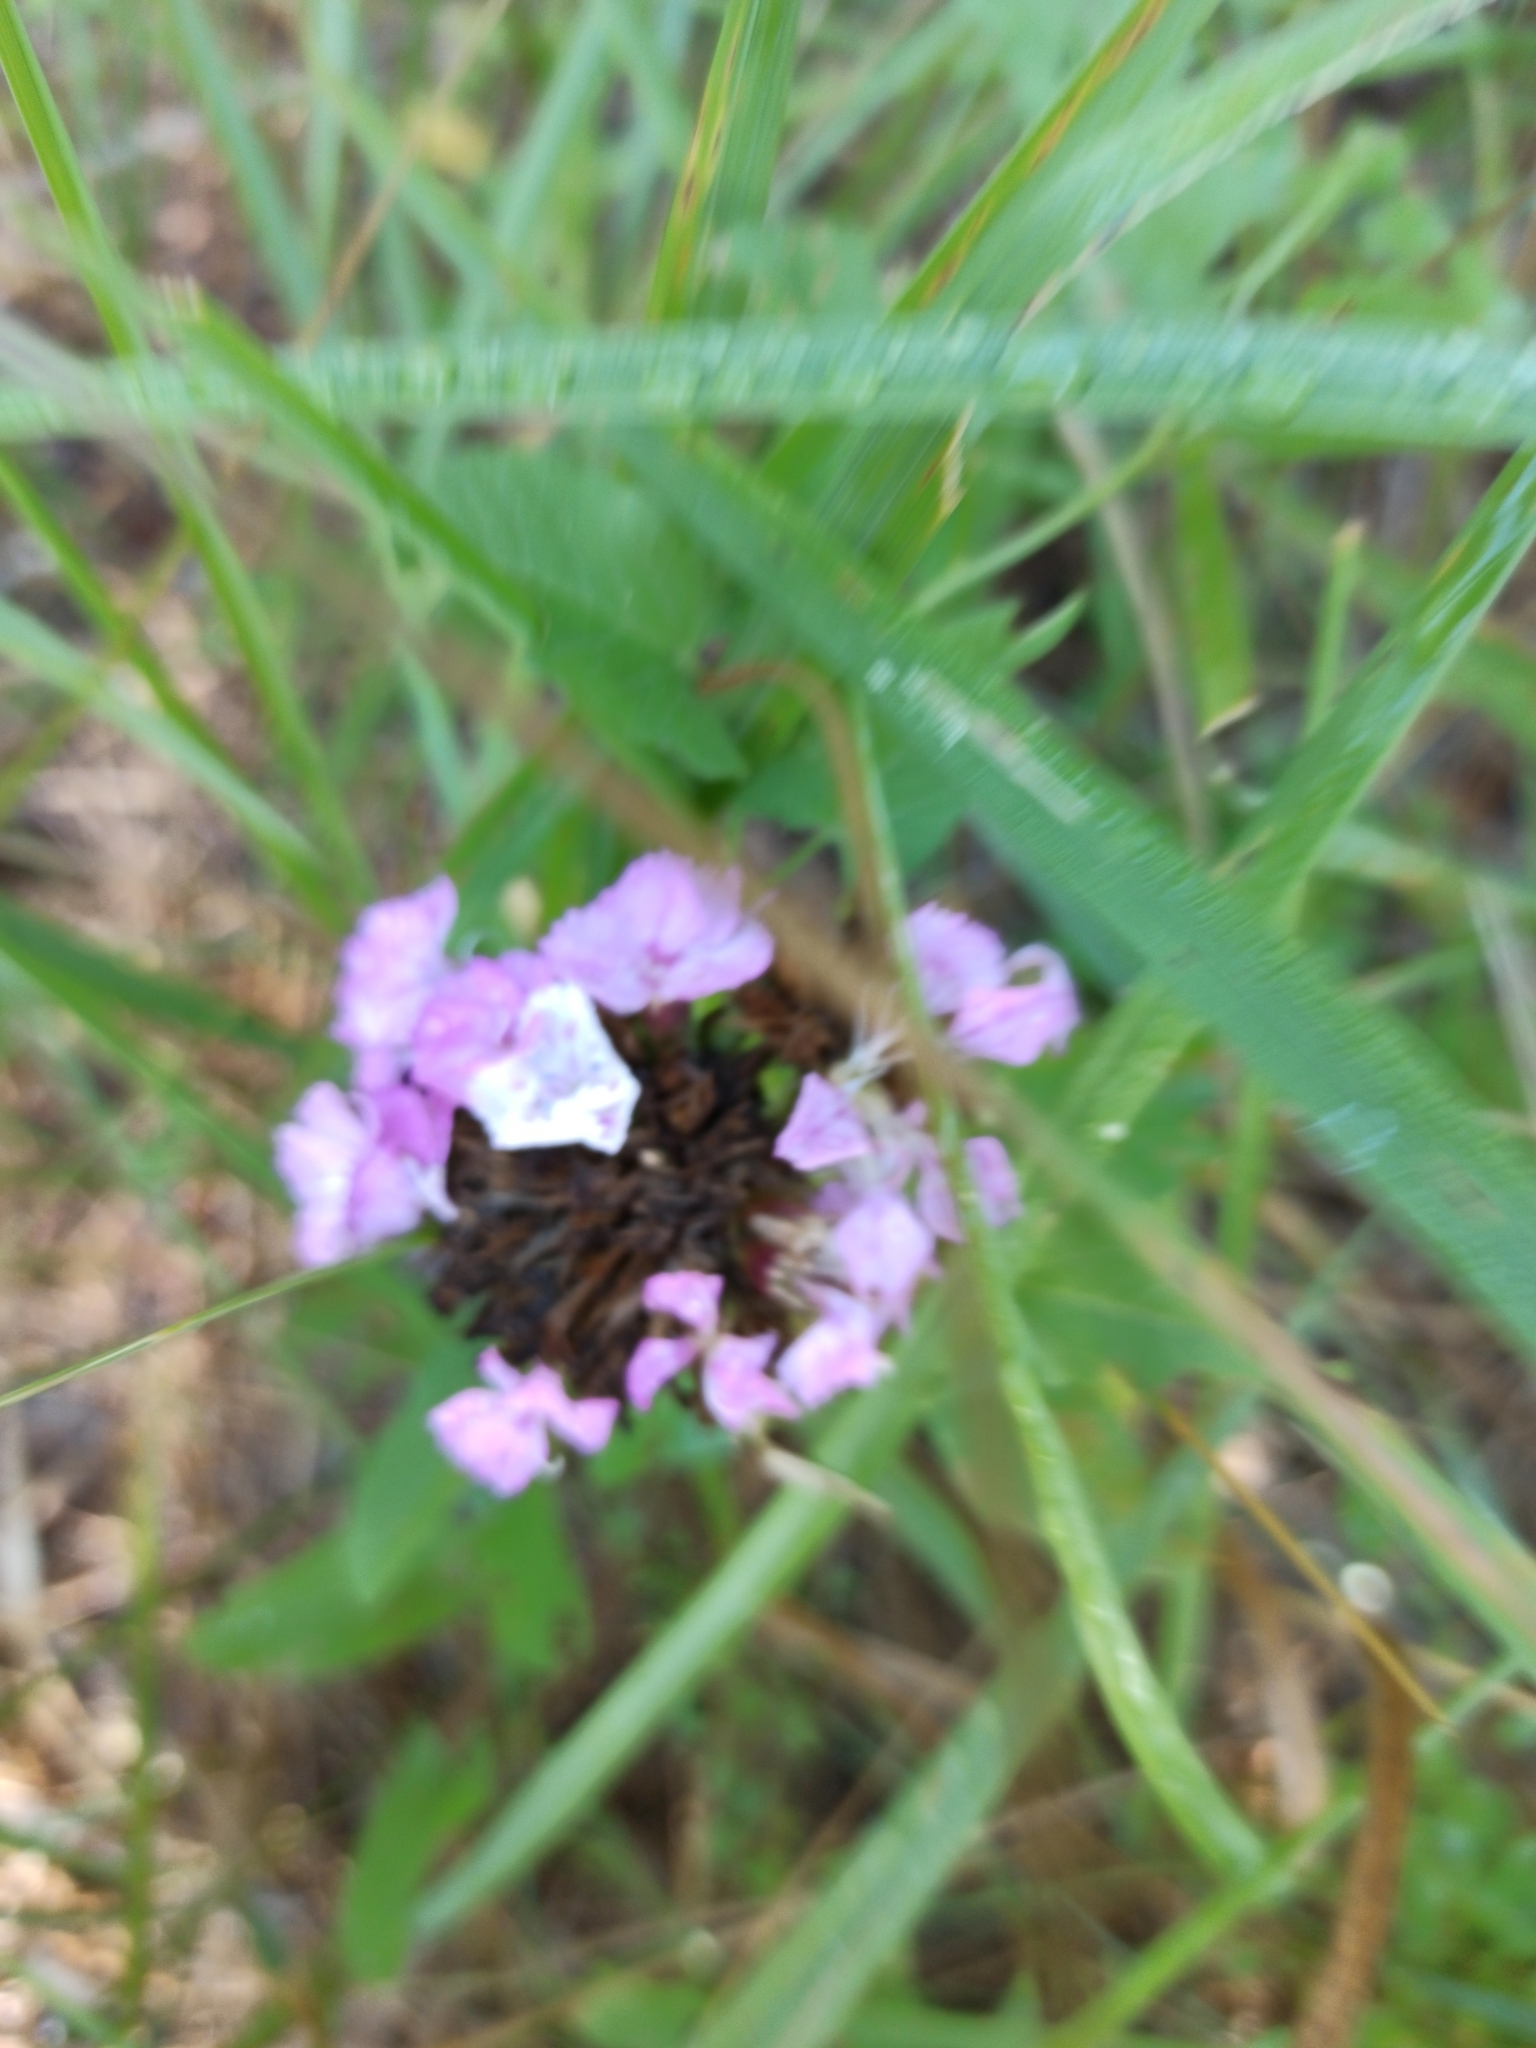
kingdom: Plantae
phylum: Tracheophyta
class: Magnoliopsida
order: Lamiales
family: Lamiaceae
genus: Prunella
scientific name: Prunella grandiflora
